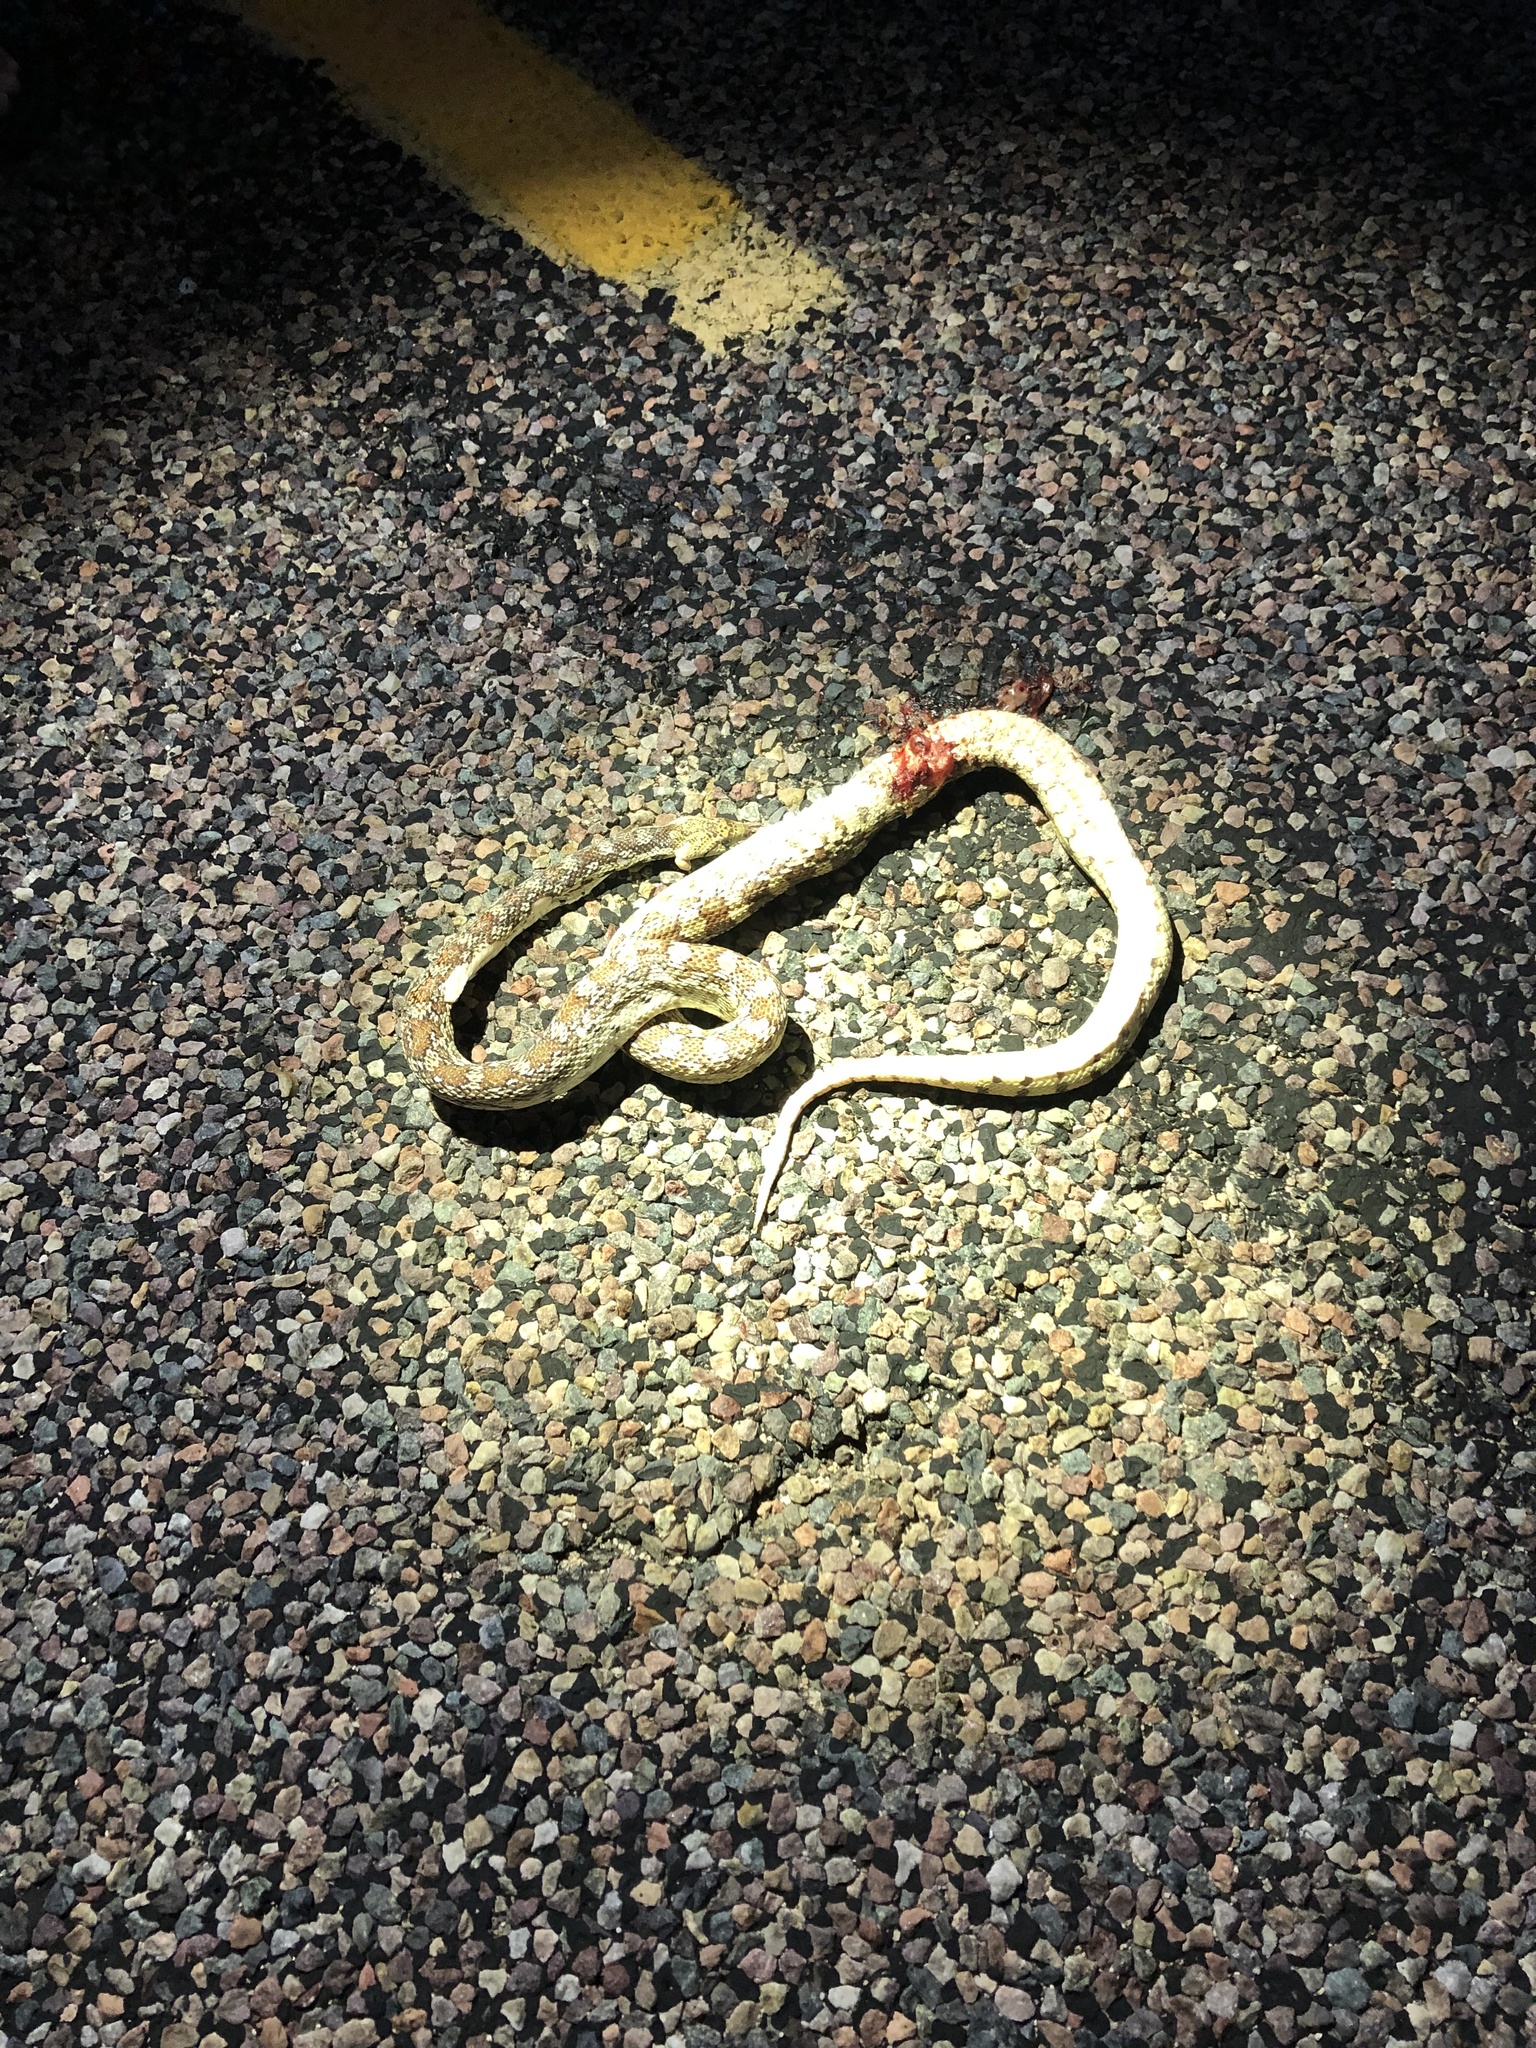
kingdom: Animalia
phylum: Chordata
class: Squamata
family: Colubridae
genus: Pituophis
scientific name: Pituophis catenifer
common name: Gopher snake
